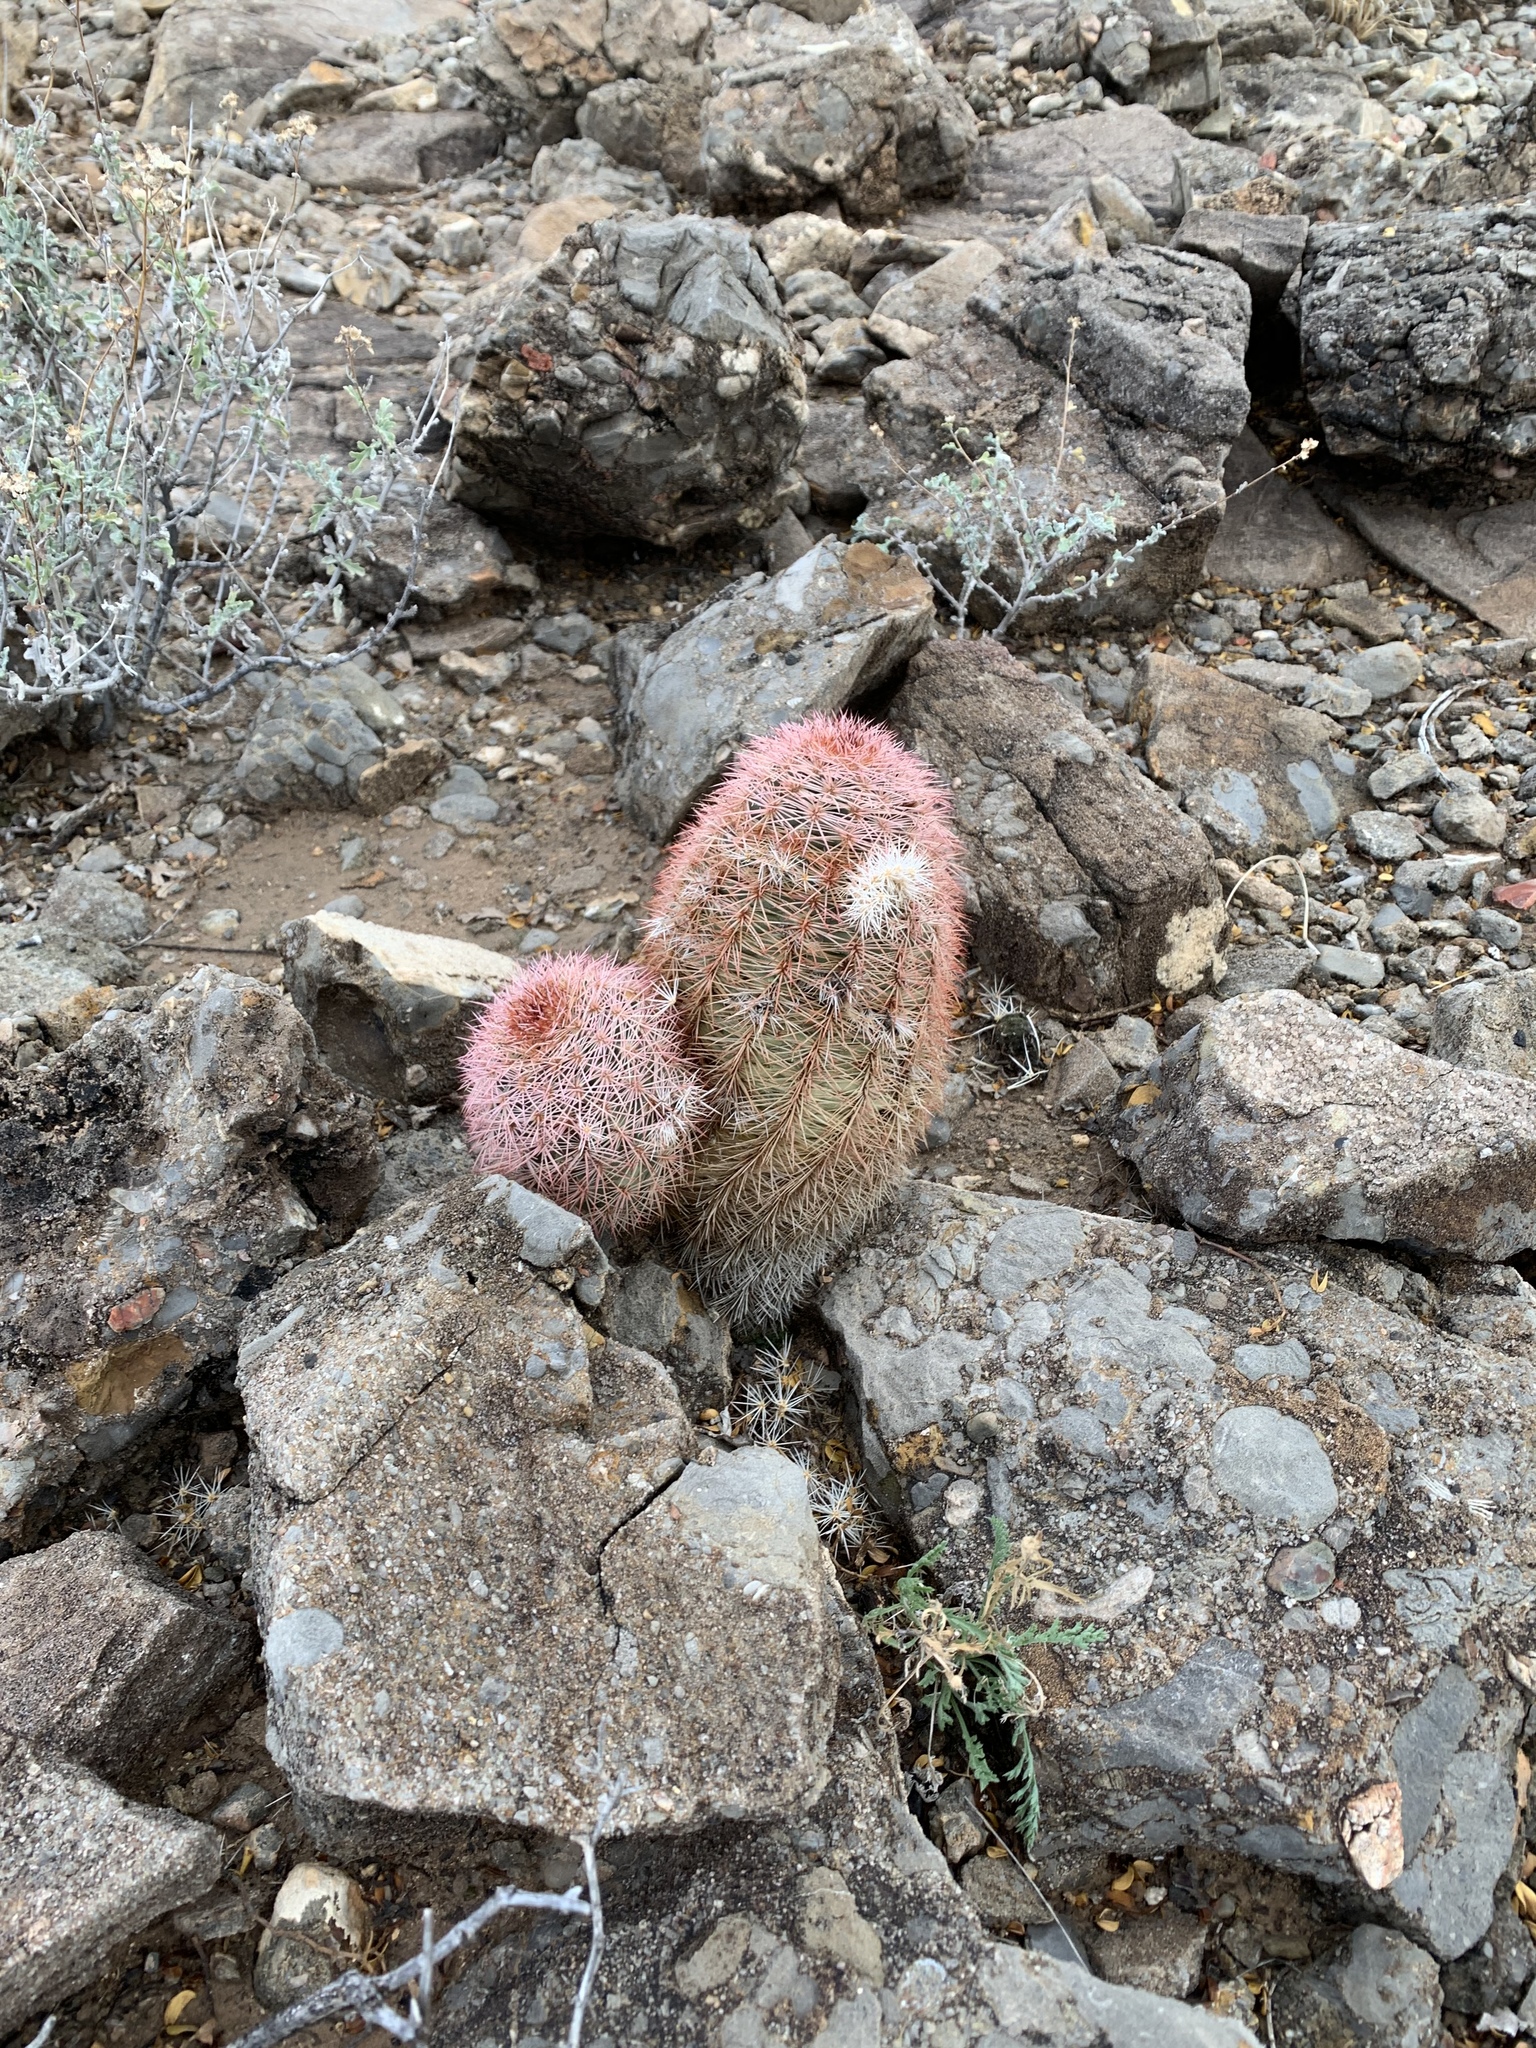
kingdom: Plantae
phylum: Tracheophyta
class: Magnoliopsida
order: Caryophyllales
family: Cactaceae
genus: Echinocereus
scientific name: Echinocereus dasyacanthus
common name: Spiny hedgehog cactus
